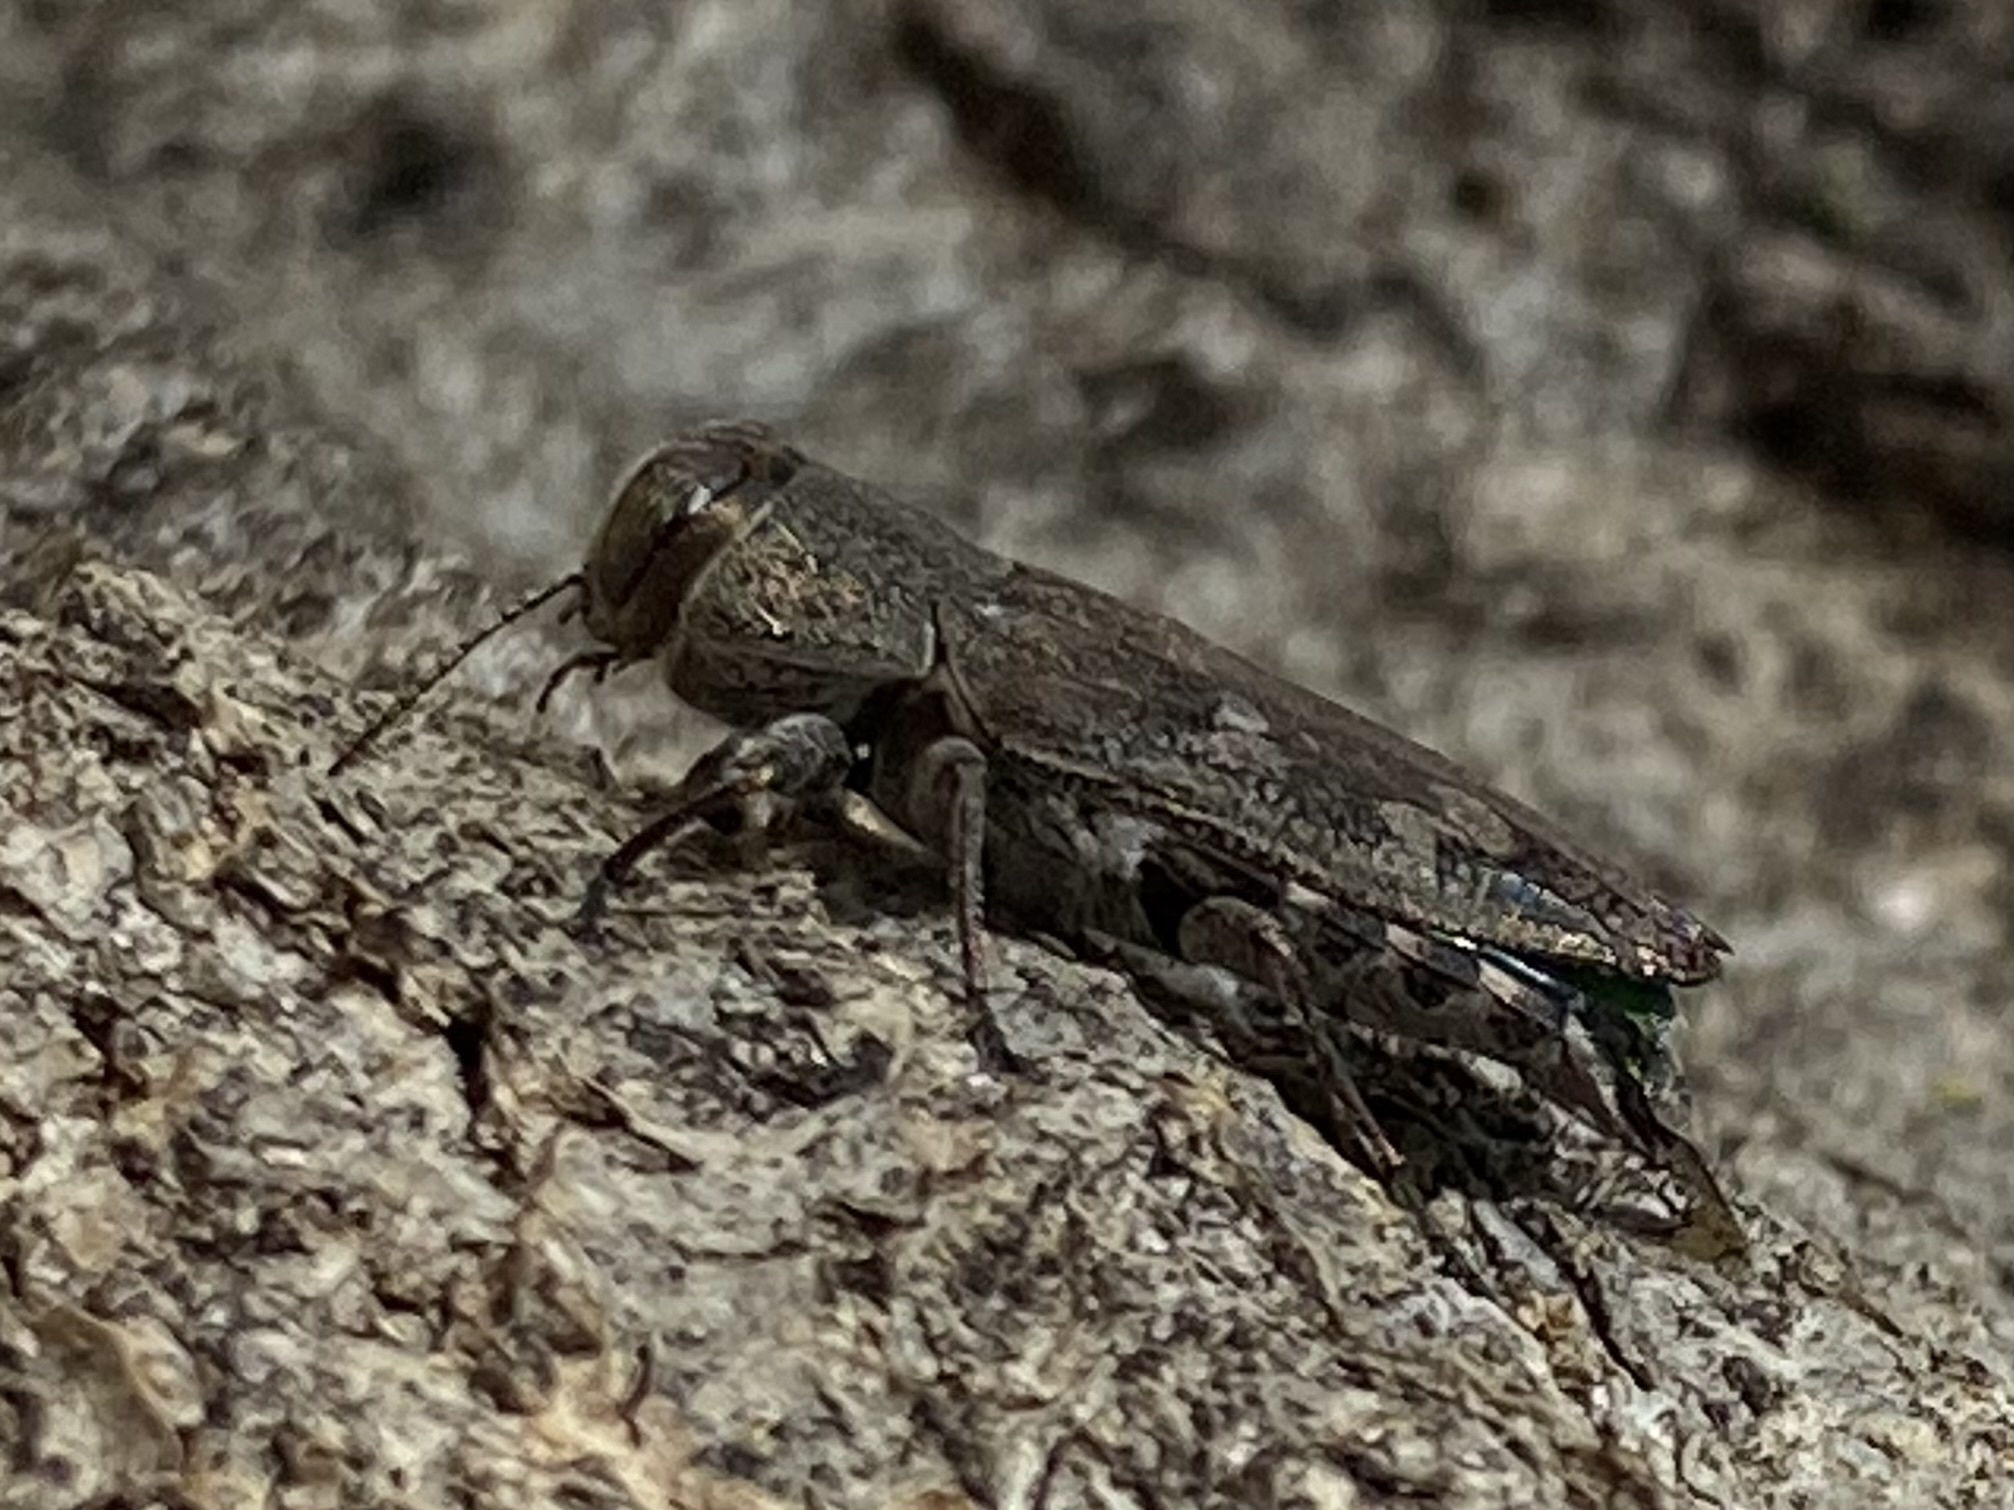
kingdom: Animalia
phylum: Arthropoda
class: Insecta
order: Coleoptera
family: Buprestidae
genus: Chrysobothris
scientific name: Chrysobothris
